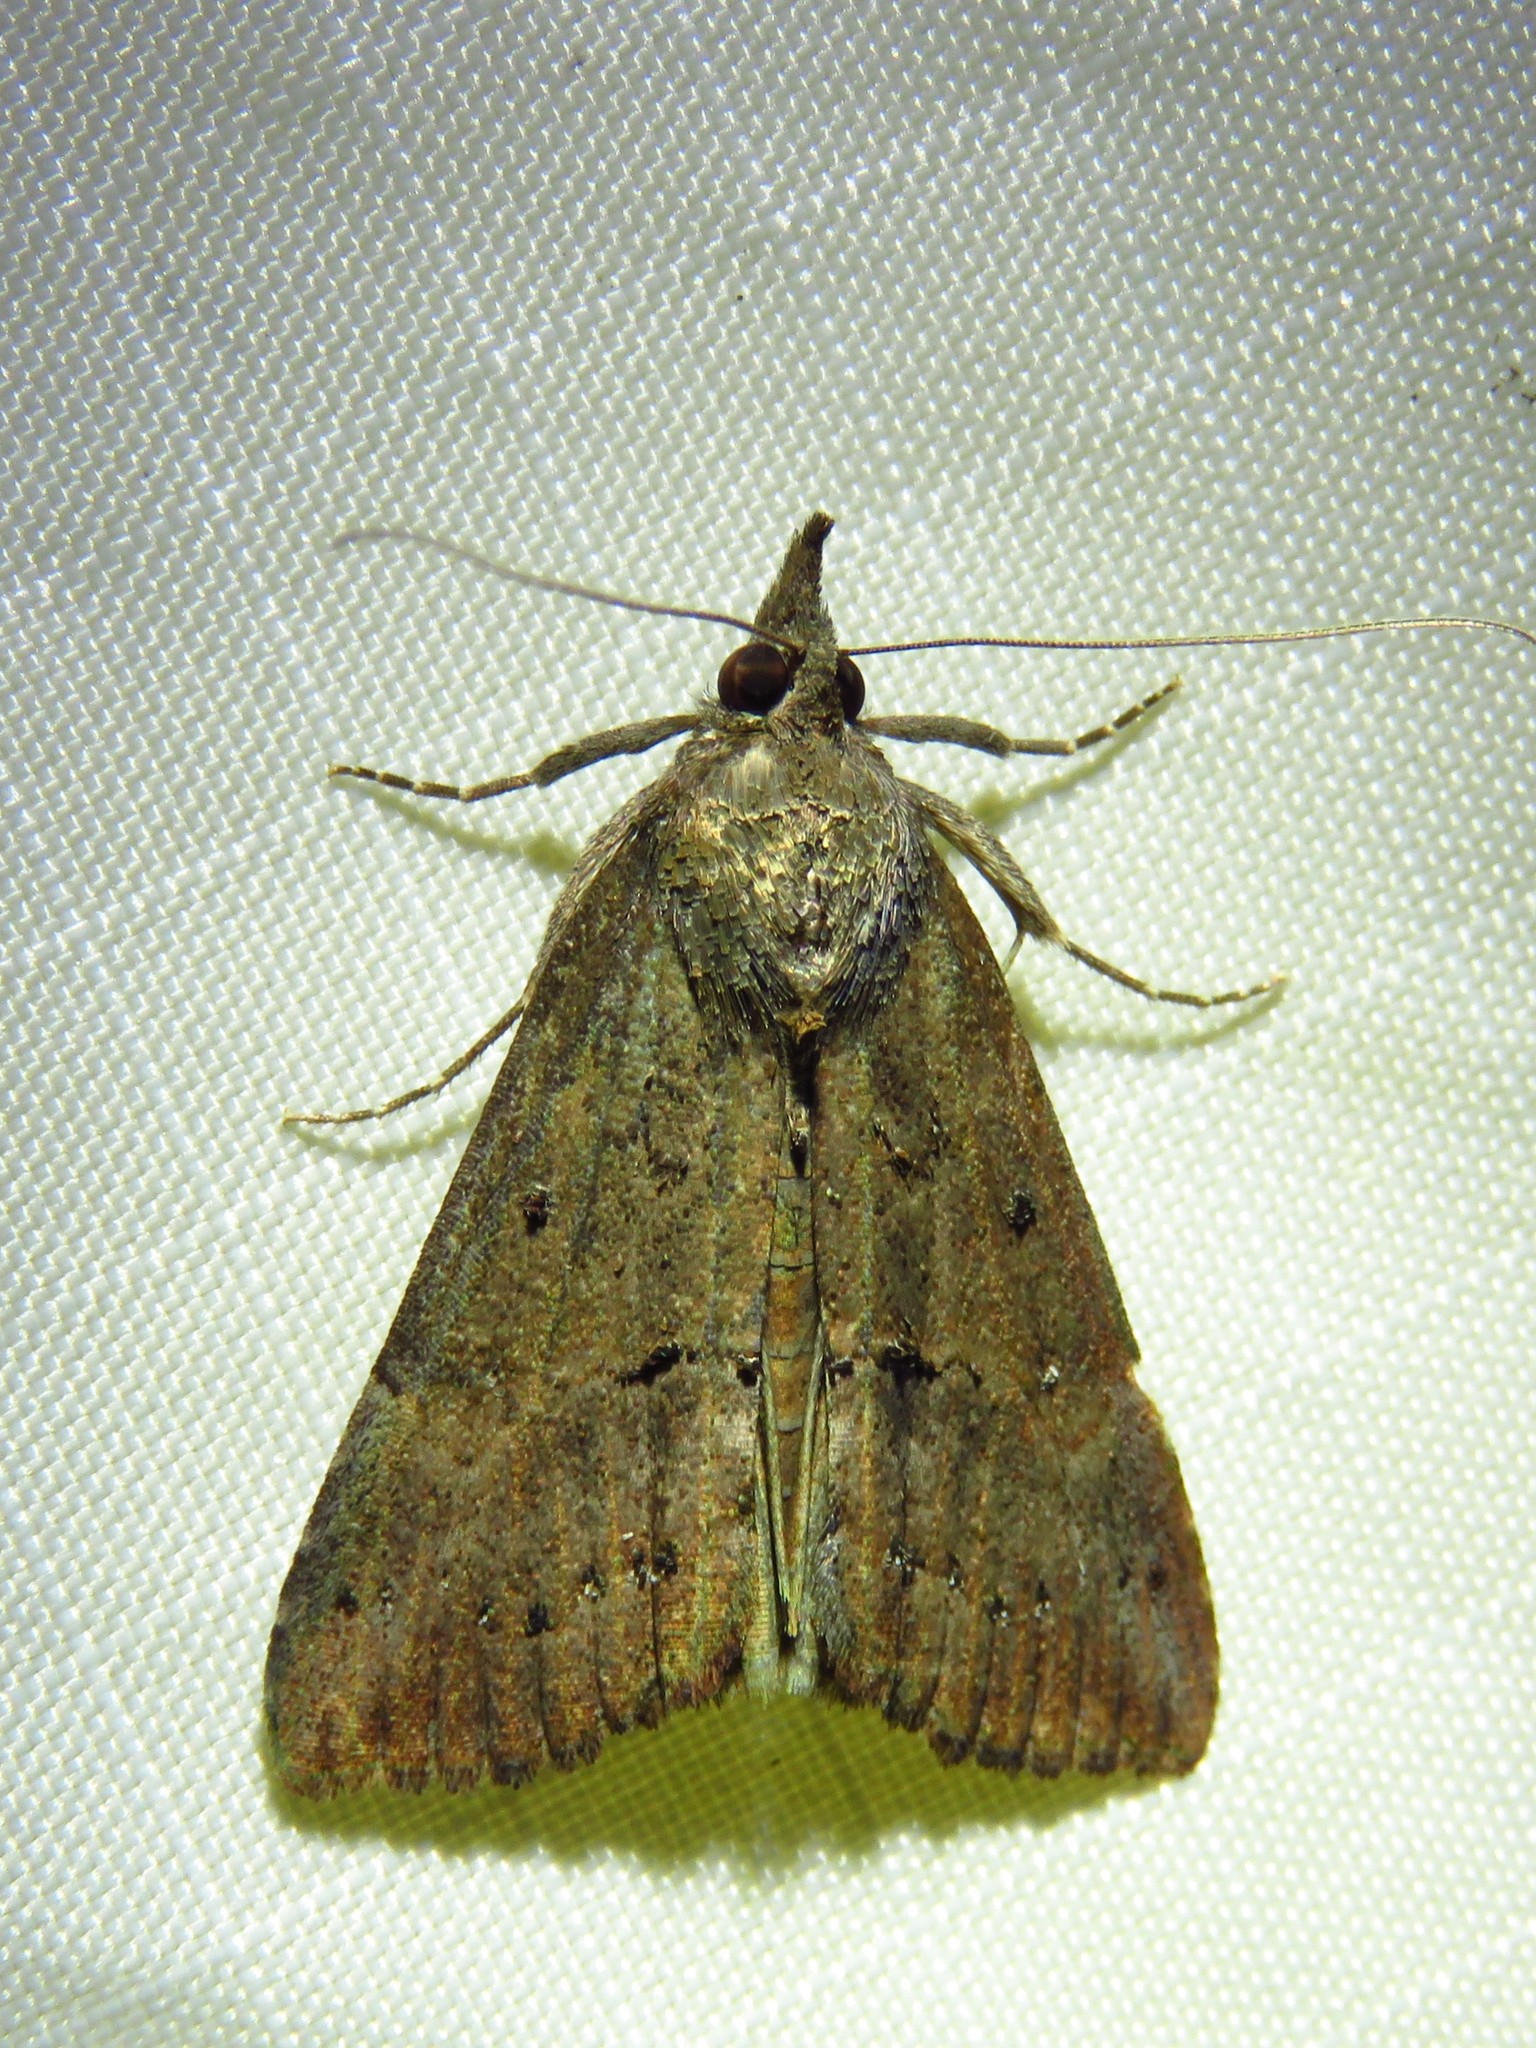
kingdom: Animalia
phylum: Arthropoda
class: Insecta
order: Lepidoptera
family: Erebidae
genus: Hypena
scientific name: Hypena scabra
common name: Green cloverworm
